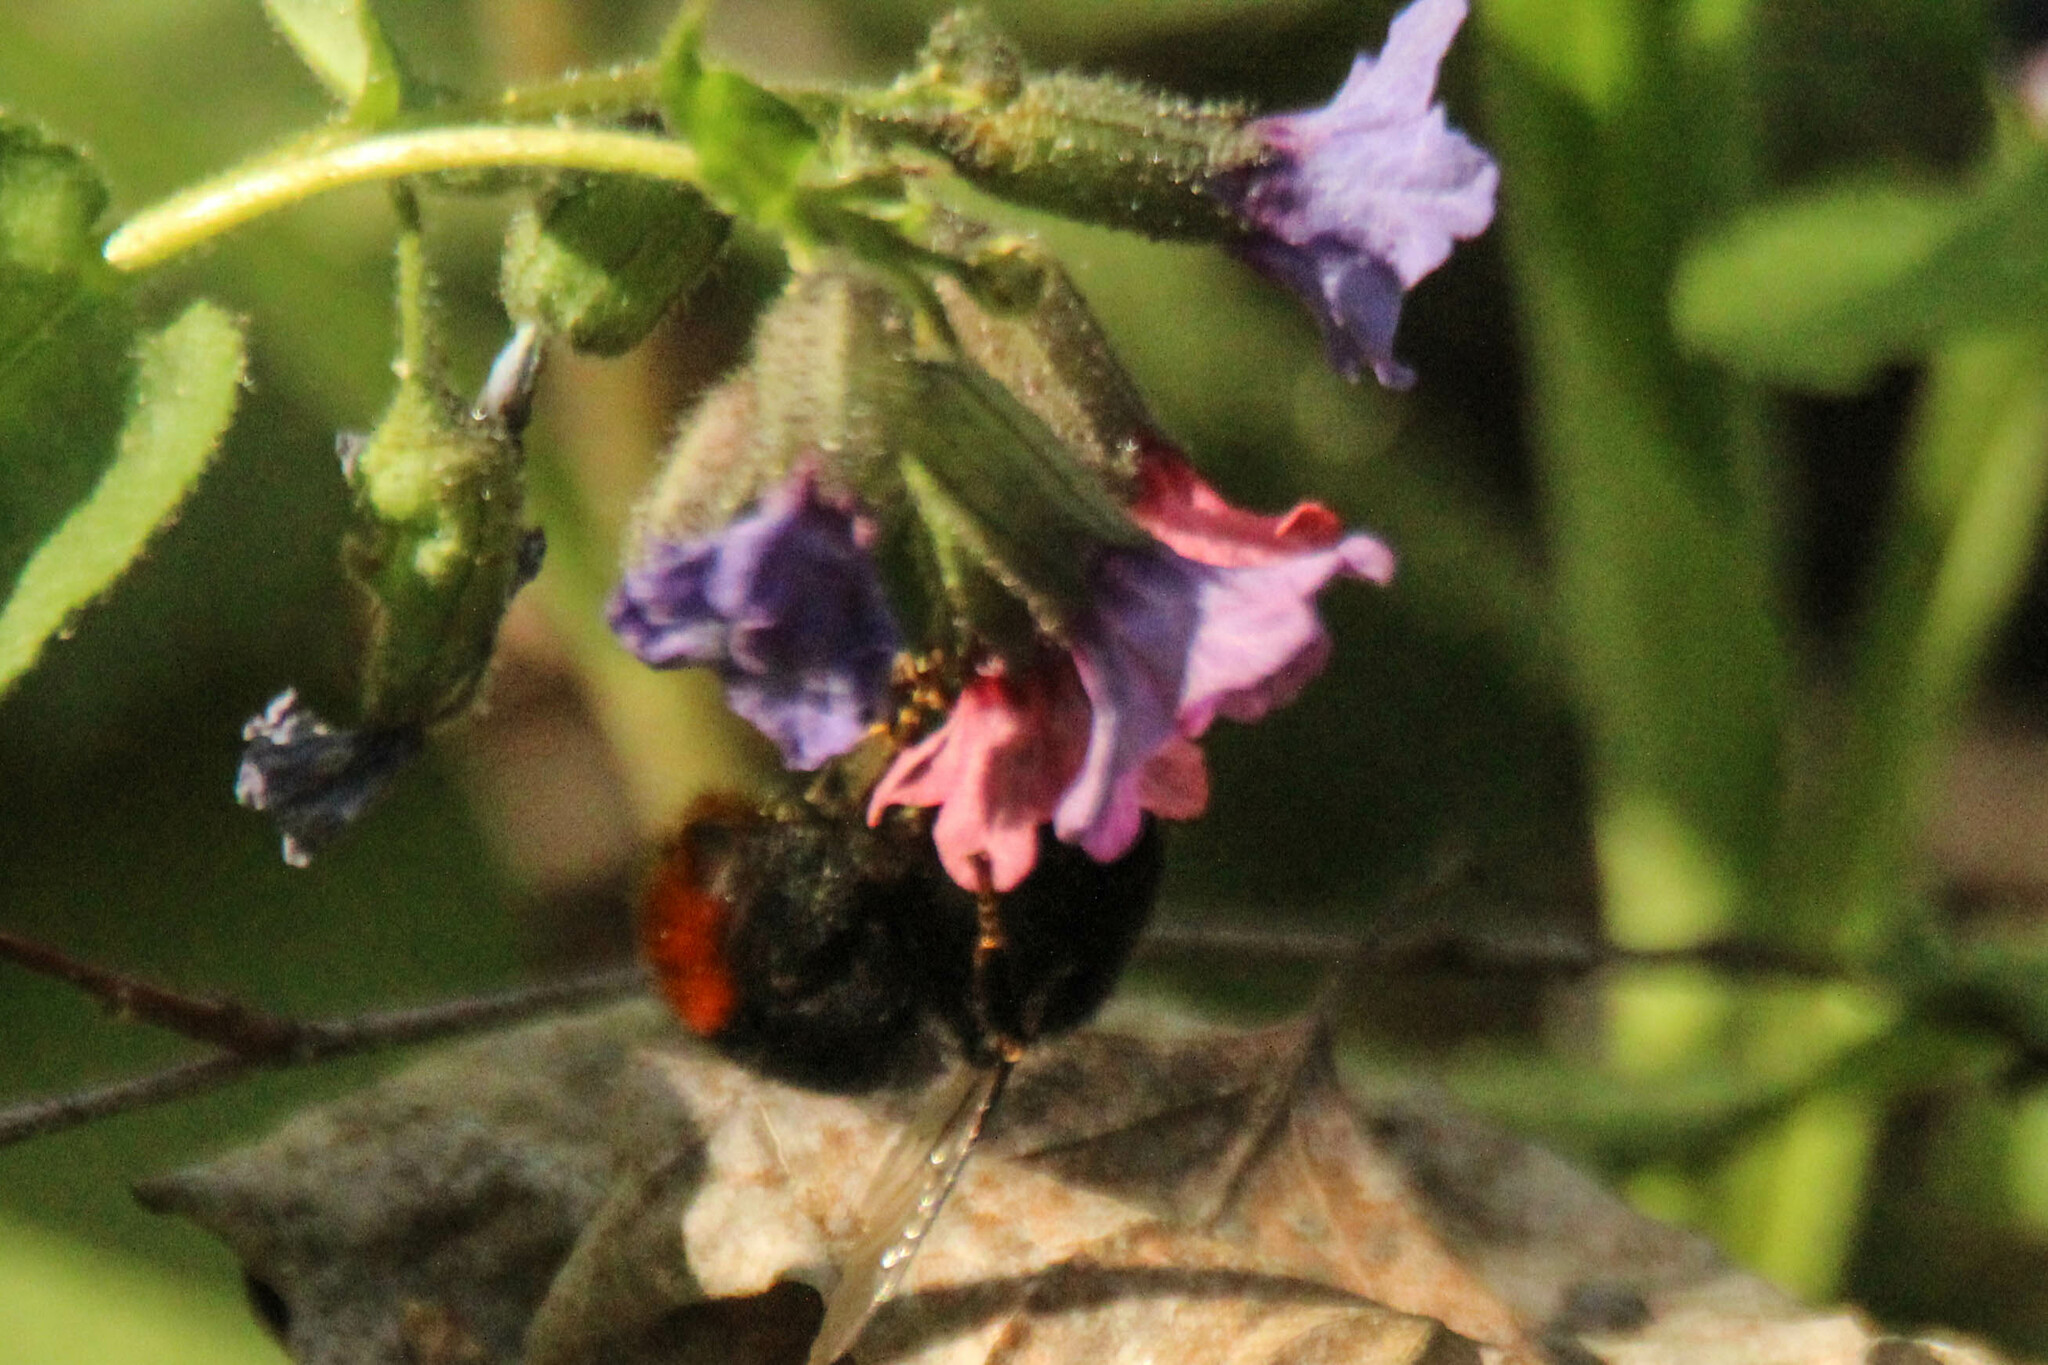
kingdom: Animalia
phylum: Arthropoda
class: Insecta
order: Hymenoptera
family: Apidae
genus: Bombus
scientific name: Bombus lapidarius
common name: Large red-tailed humble-bee
